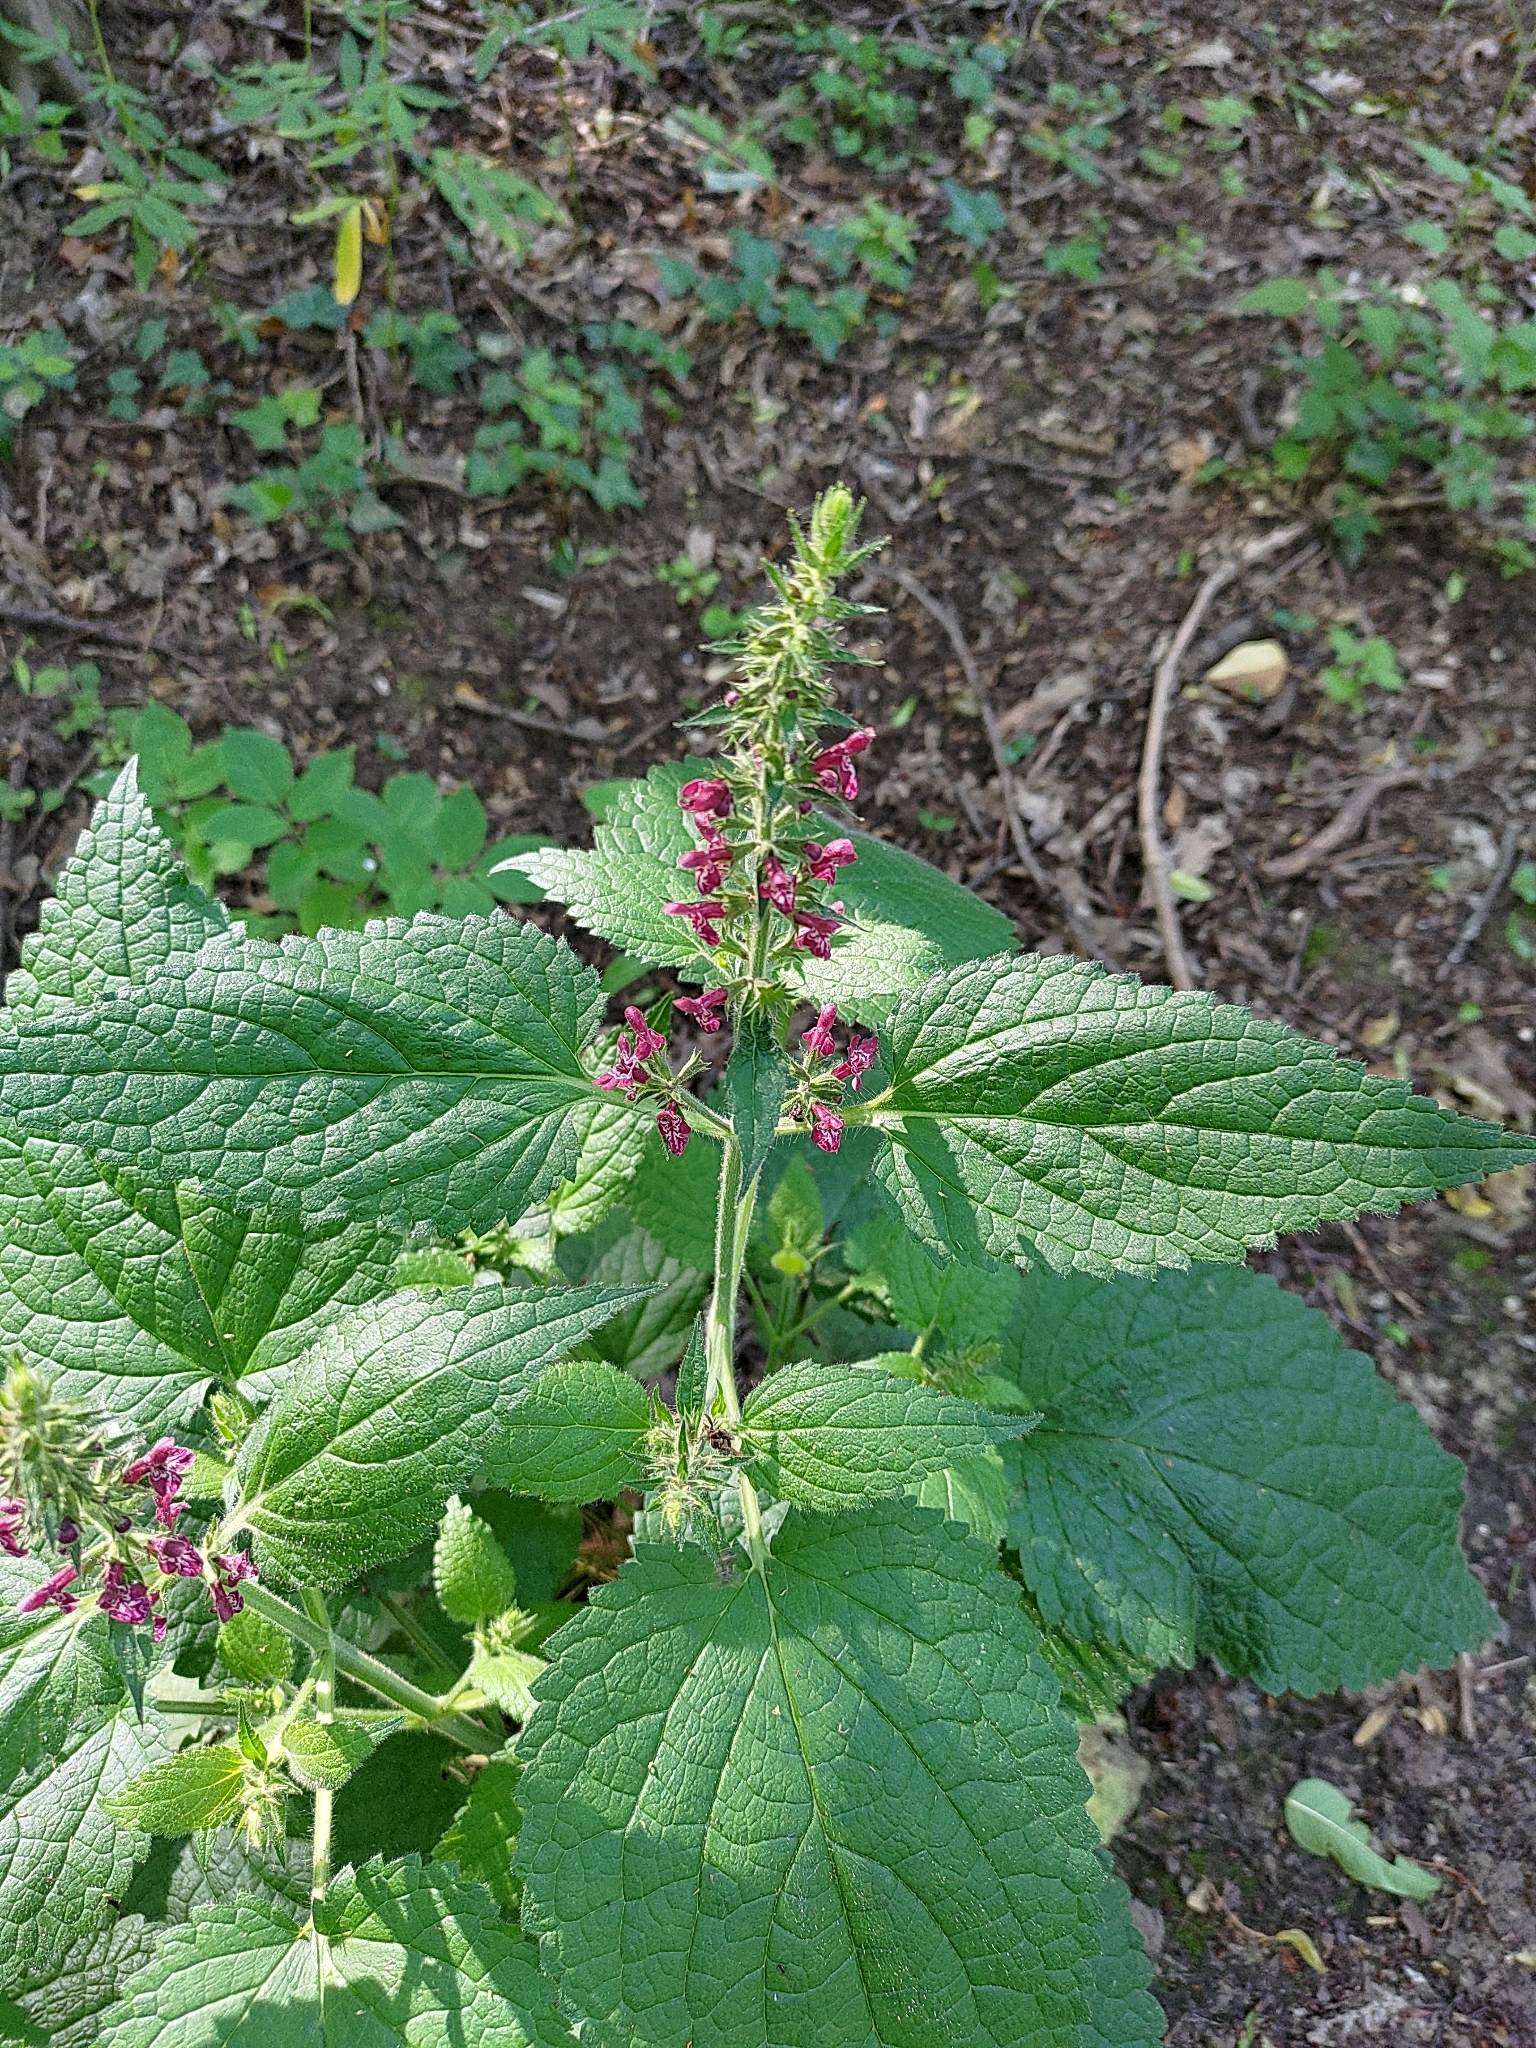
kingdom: Plantae
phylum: Tracheophyta
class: Magnoliopsida
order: Lamiales
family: Lamiaceae
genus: Stachys
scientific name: Stachys sylvatica
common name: Hedge woundwort
